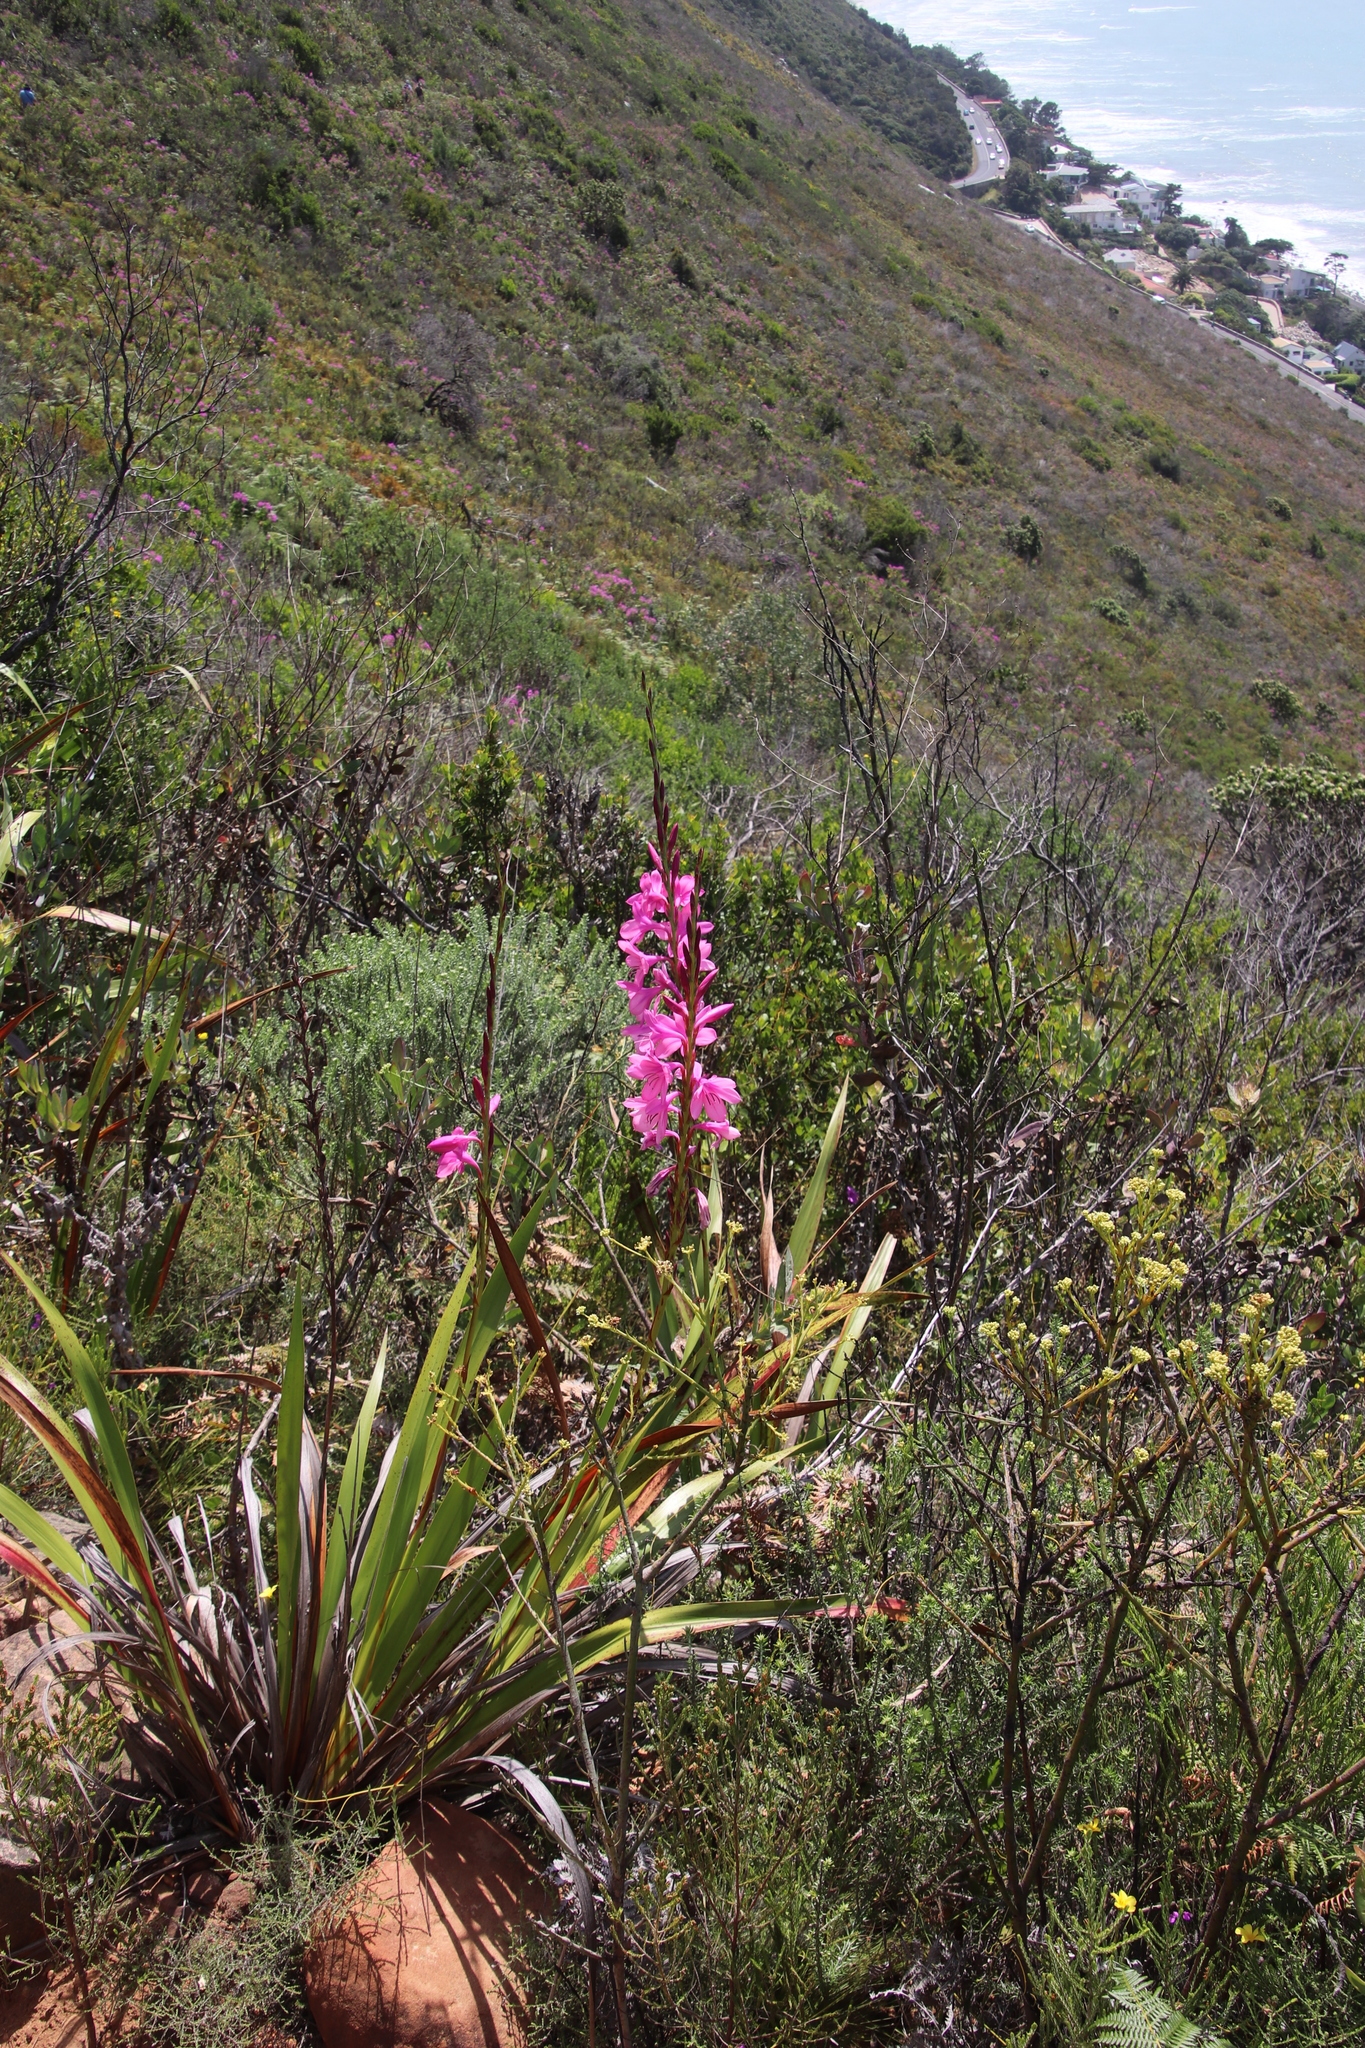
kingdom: Plantae
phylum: Tracheophyta
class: Liliopsida
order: Asparagales
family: Iridaceae
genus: Watsonia
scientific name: Watsonia borbonica
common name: Bugle-lily
